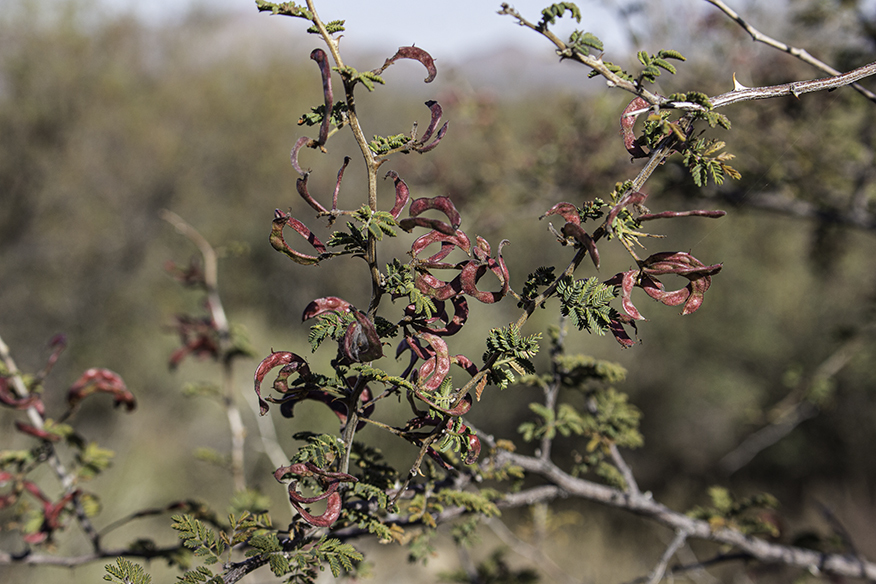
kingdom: Plantae
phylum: Tracheophyta
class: Magnoliopsida
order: Fabales
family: Fabaceae
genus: Mimosa
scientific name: Mimosa aculeaticarpa
